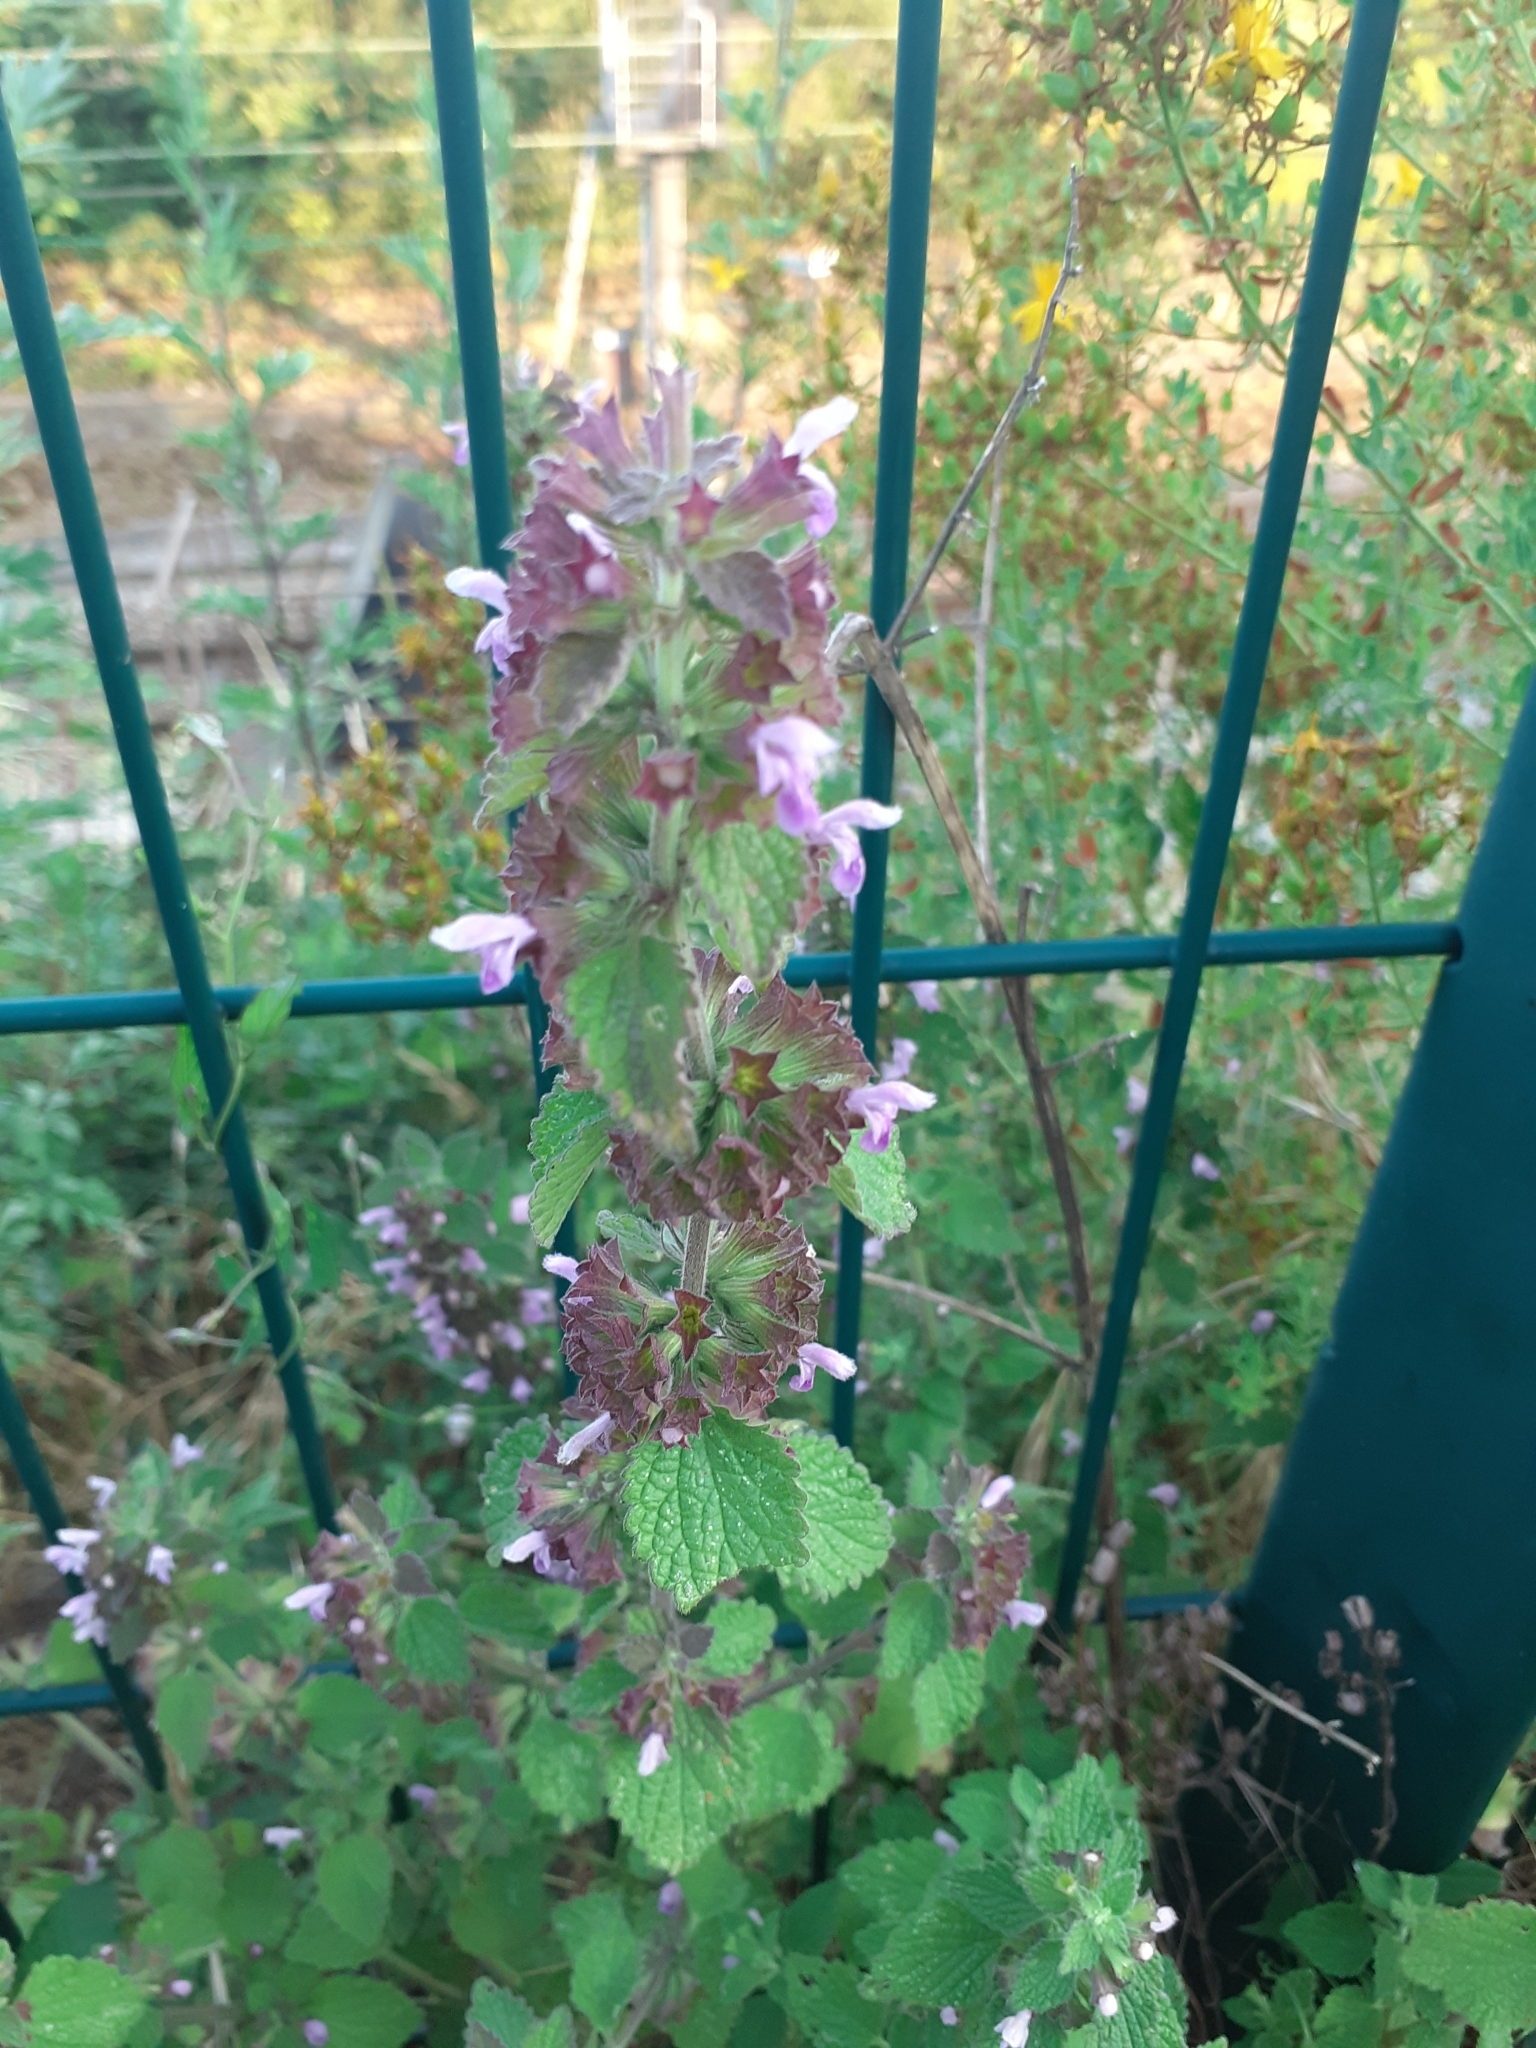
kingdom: Plantae
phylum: Tracheophyta
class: Magnoliopsida
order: Lamiales
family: Lamiaceae
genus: Ballota
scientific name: Ballota nigra
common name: Black horehound
